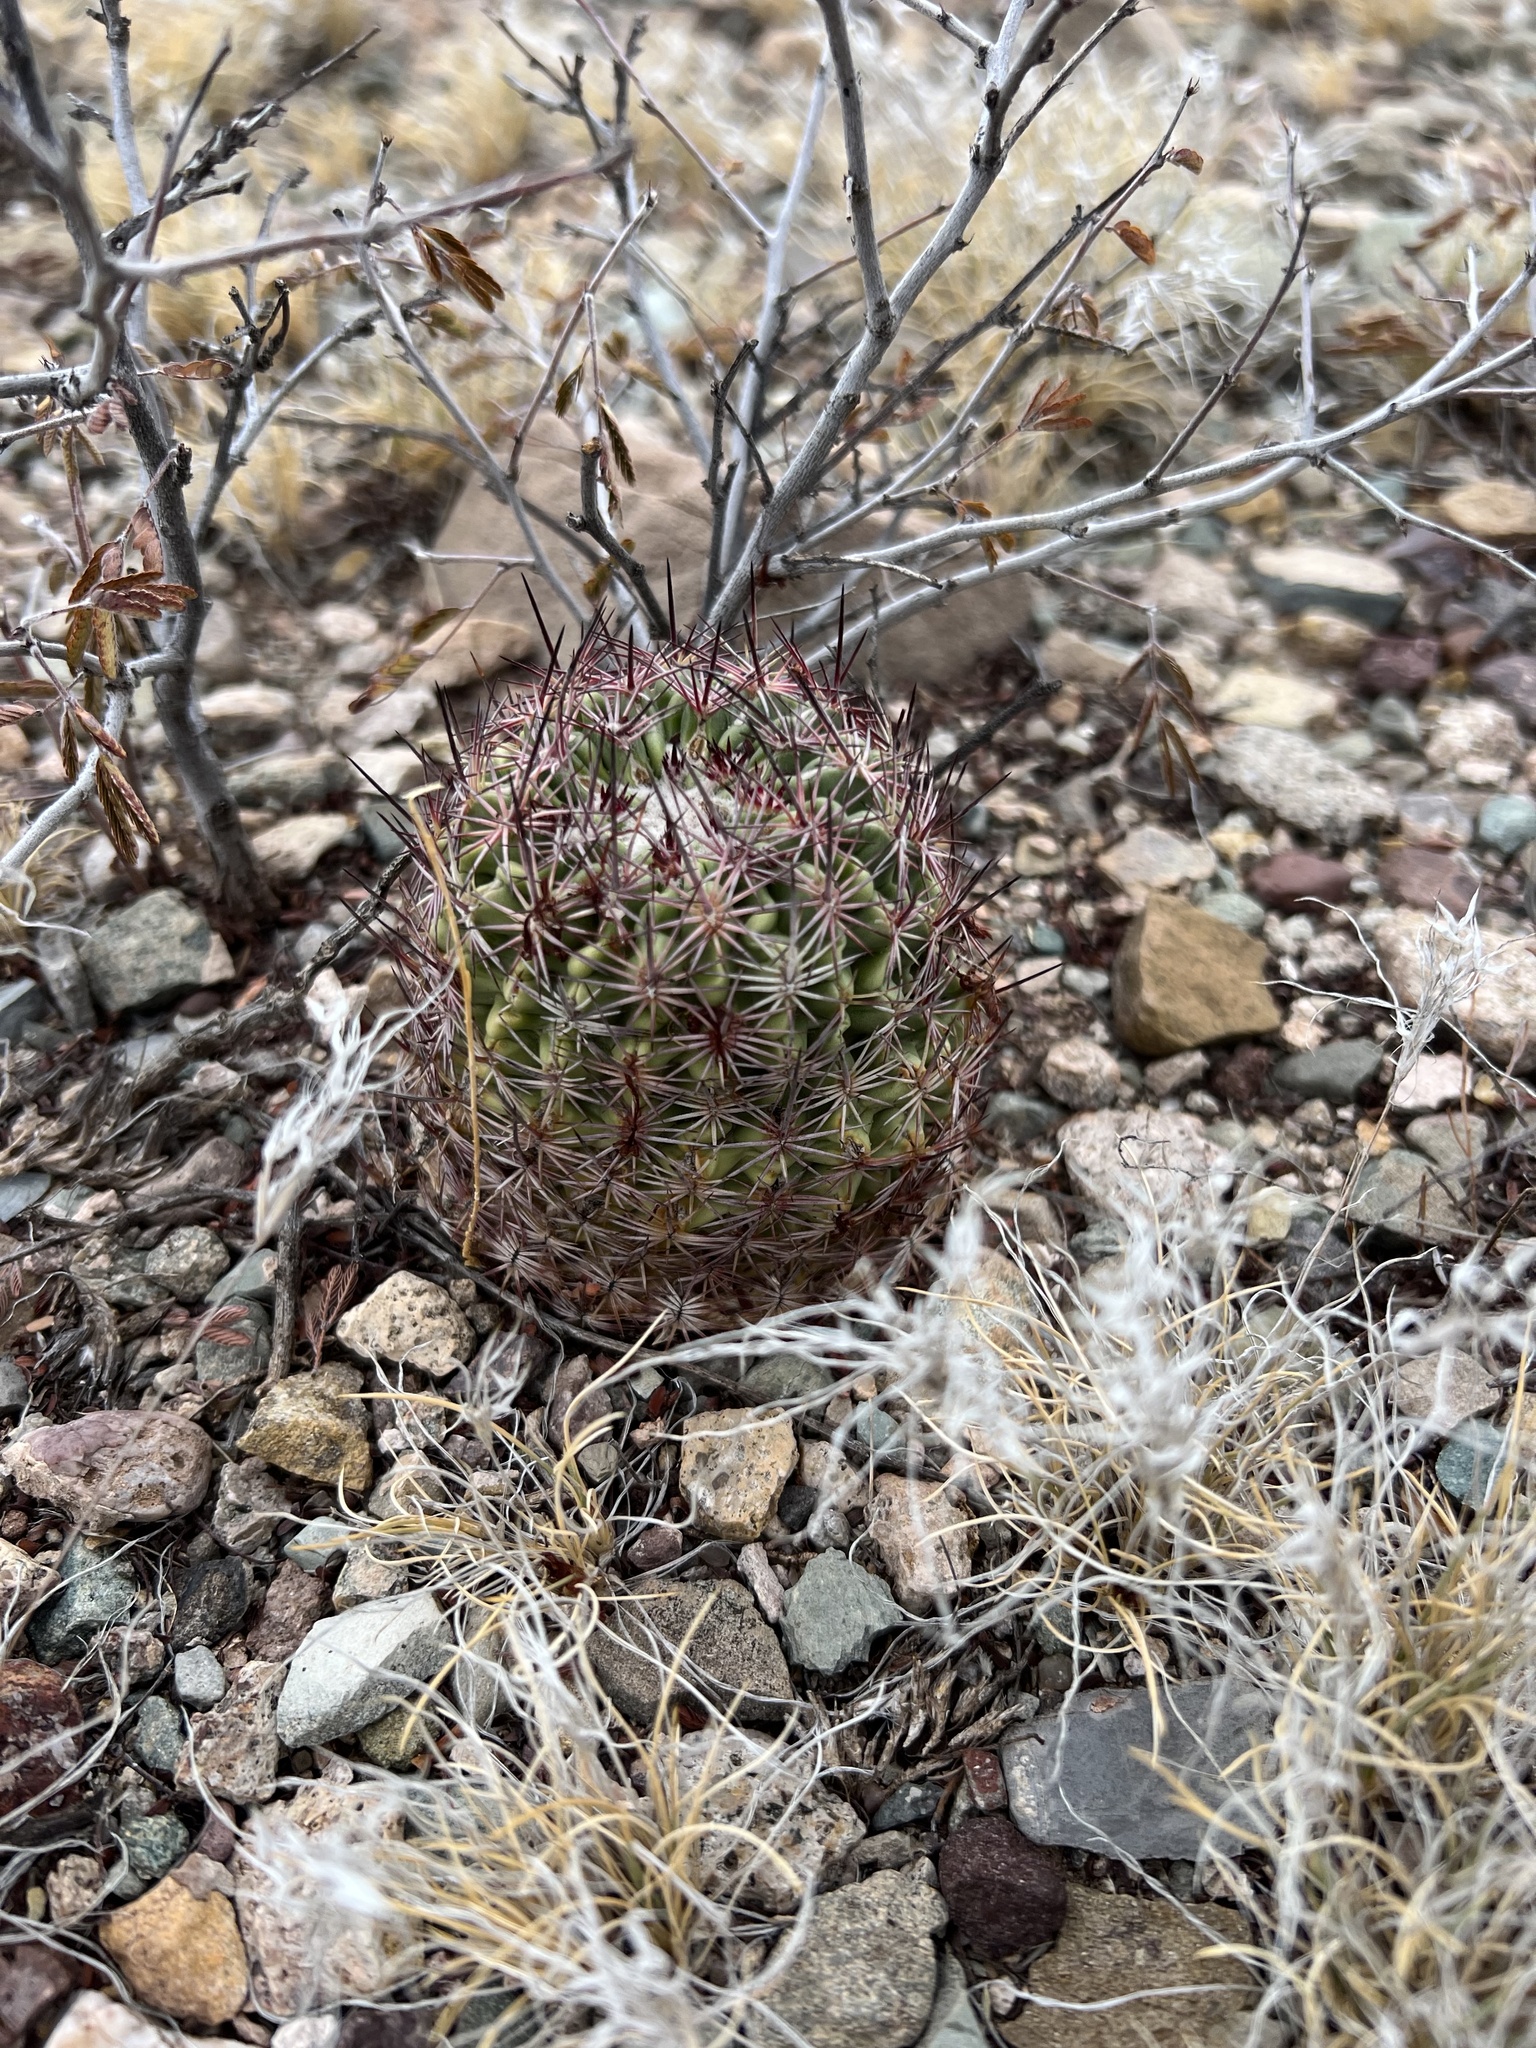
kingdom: Plantae
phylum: Tracheophyta
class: Magnoliopsida
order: Caryophyllales
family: Cactaceae
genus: Sclerocactus
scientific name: Sclerocactus johnsonii
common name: Eight-spine fishhook cactus
